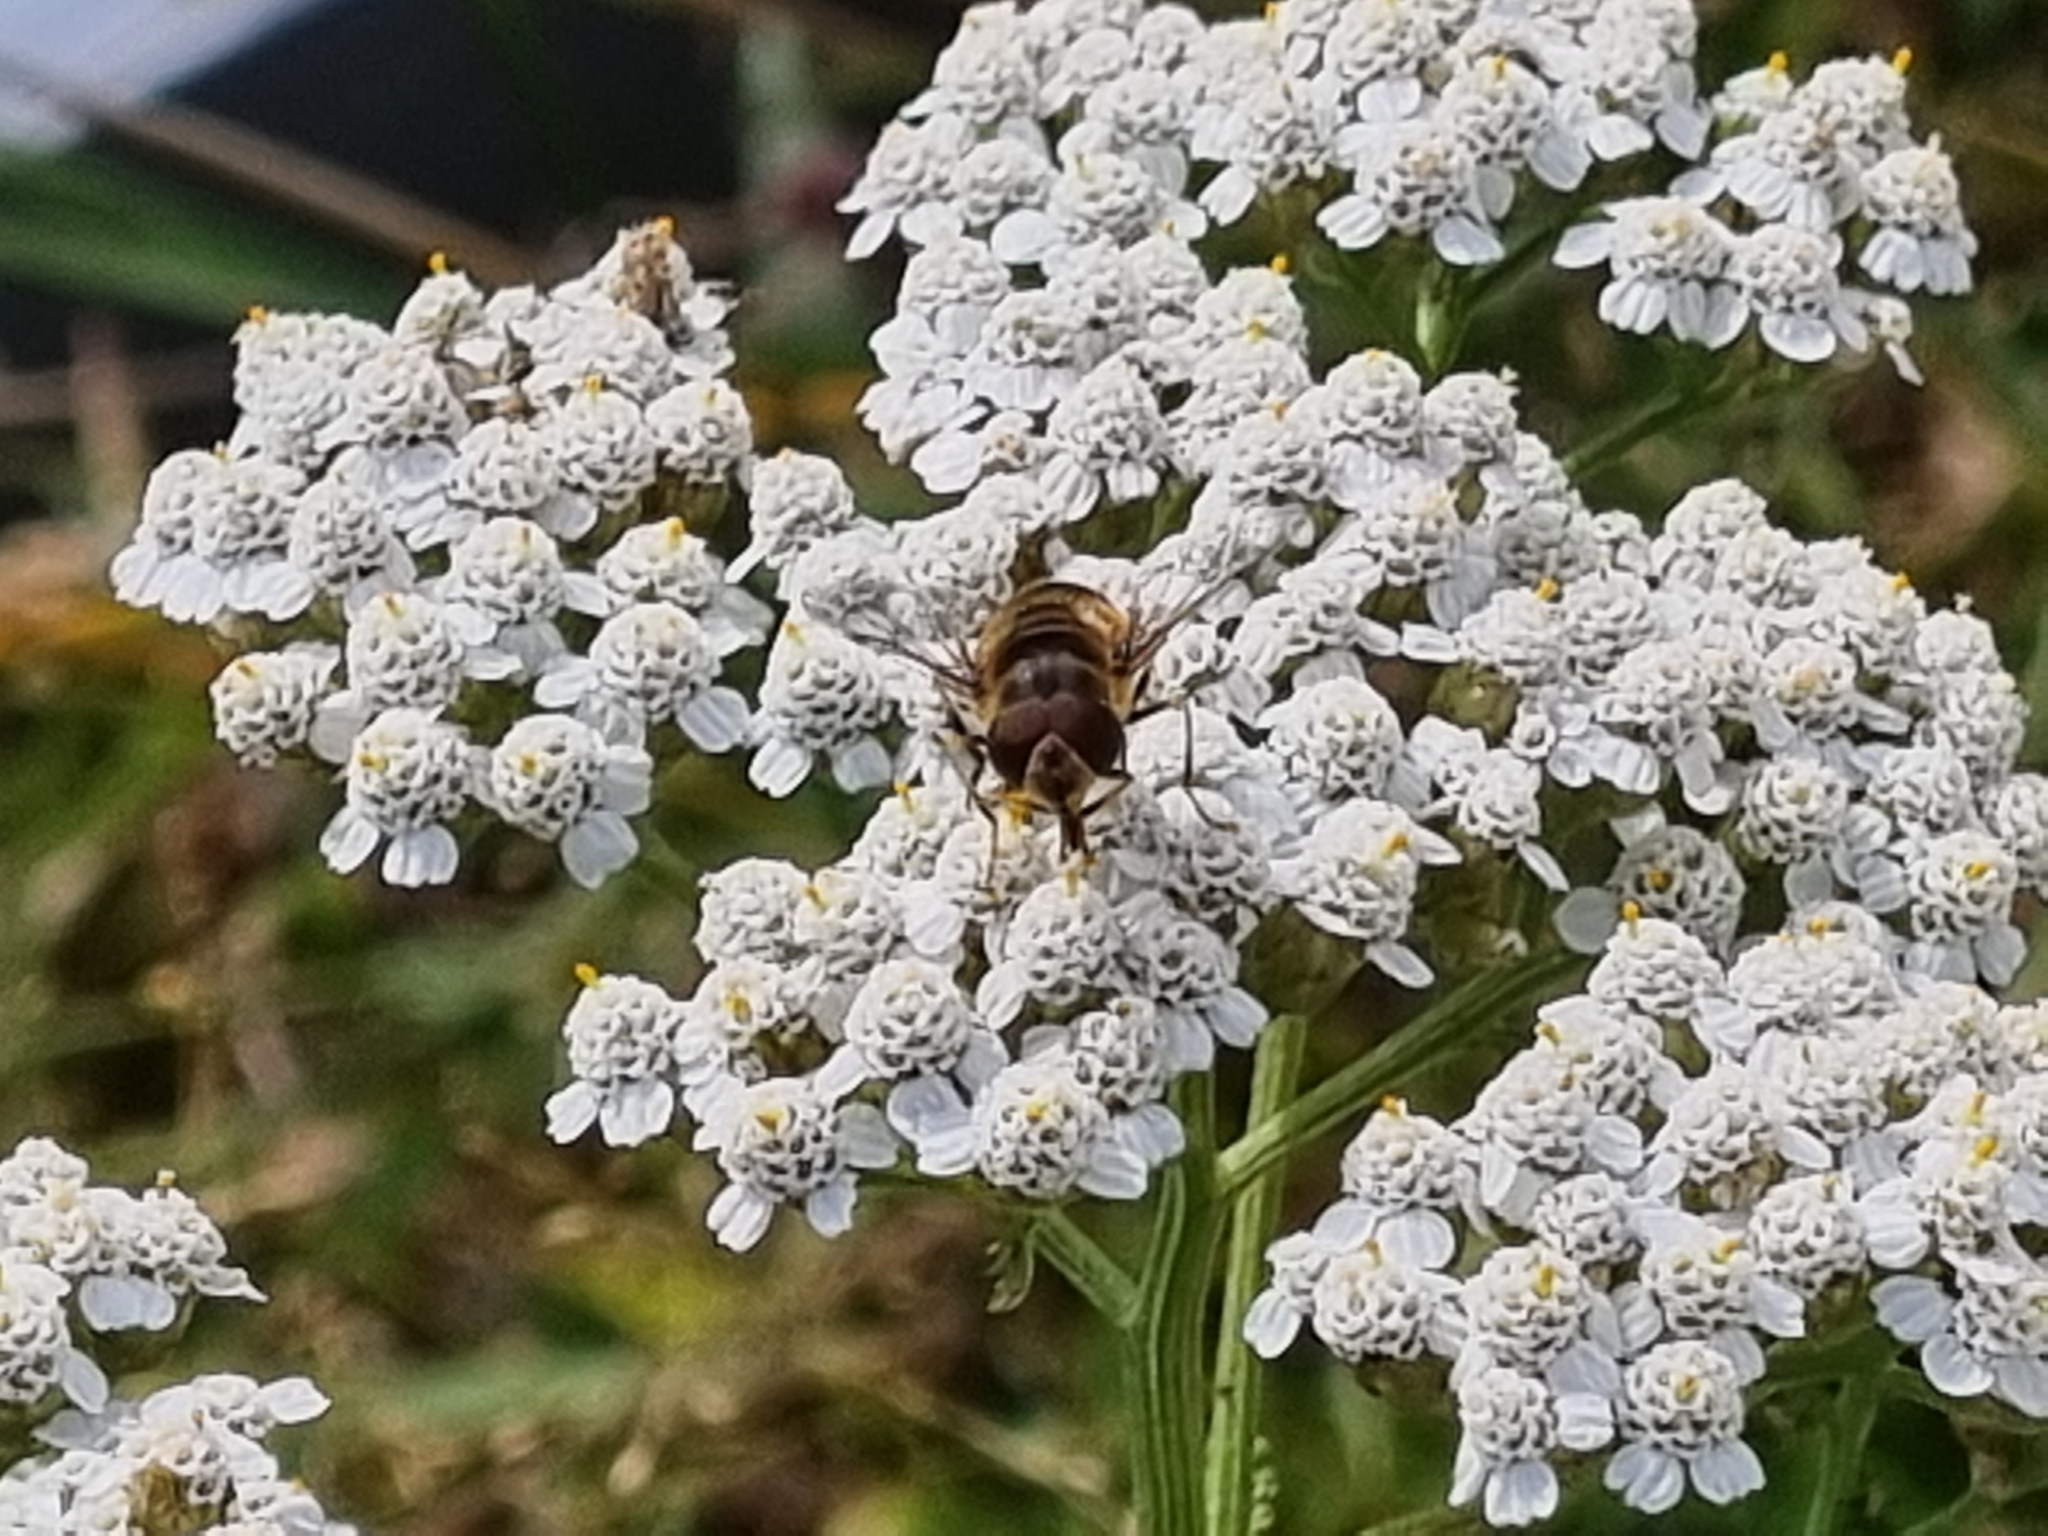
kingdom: Animalia
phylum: Arthropoda
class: Insecta
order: Diptera
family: Syrphidae
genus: Eristalis
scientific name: Eristalis pertinax
